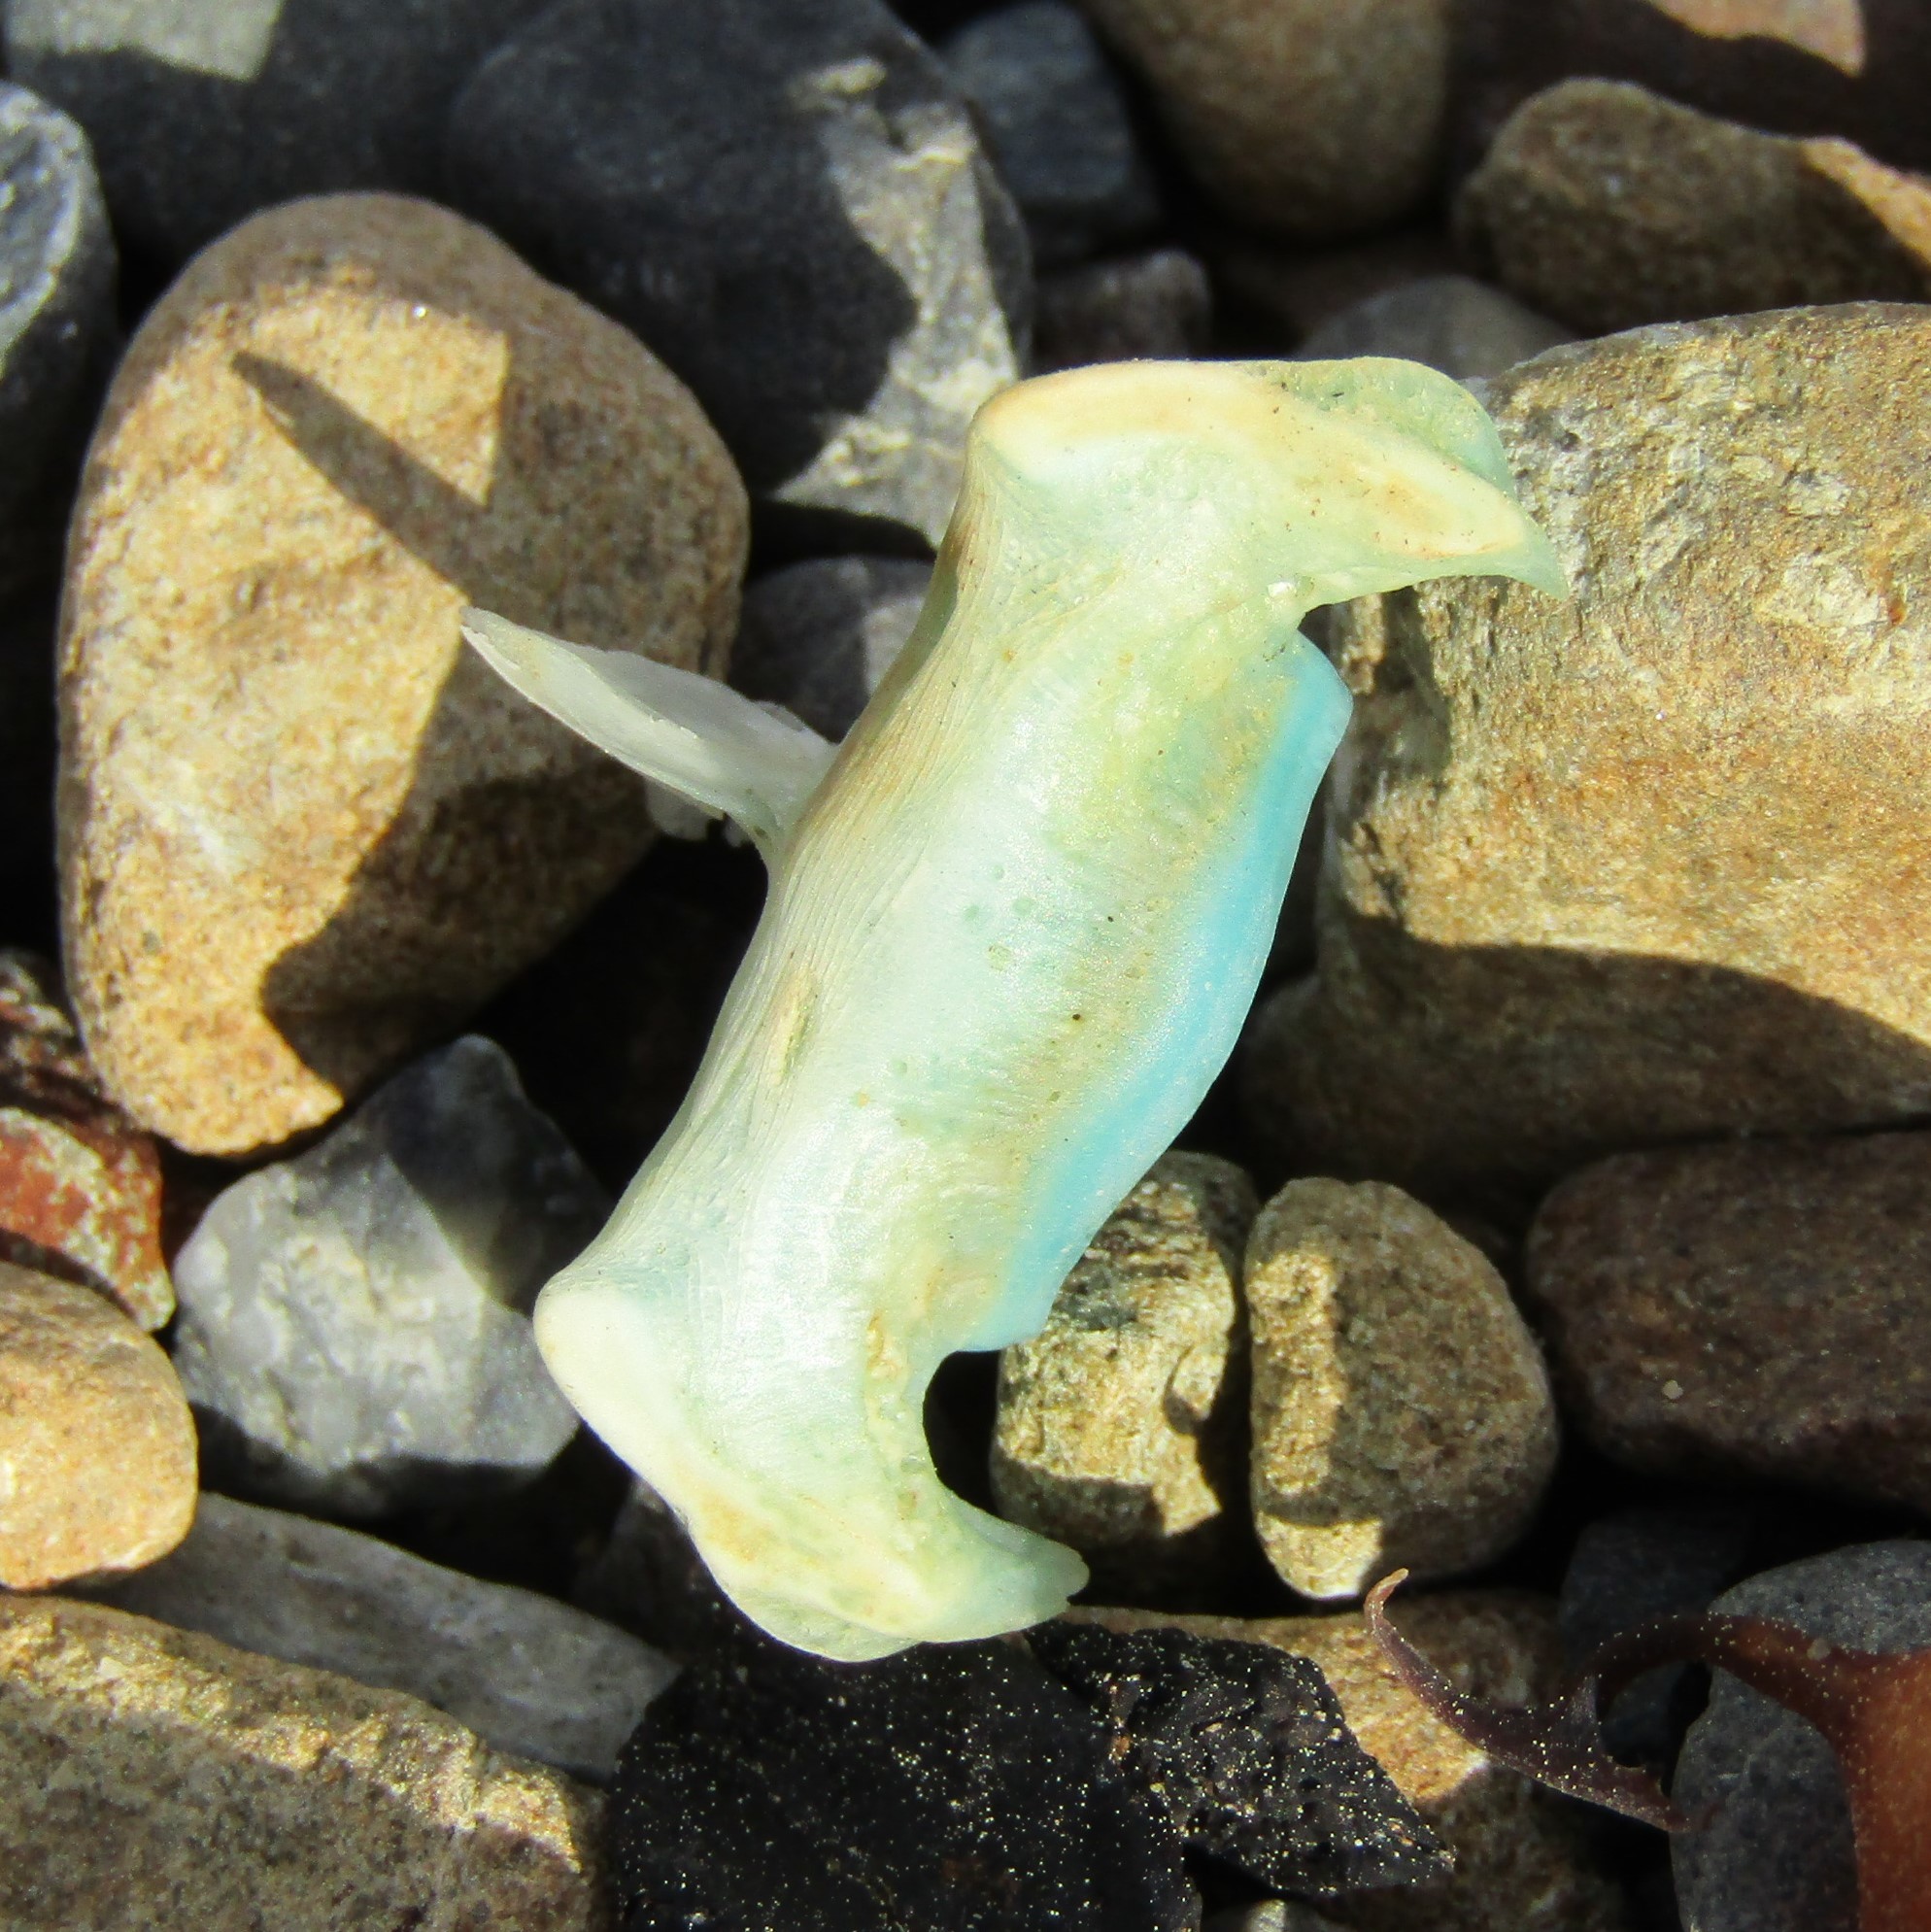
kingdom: Animalia
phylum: Chordata
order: Perciformes
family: Odacidae
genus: Odax
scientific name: Odax pullus
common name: Butterfish
